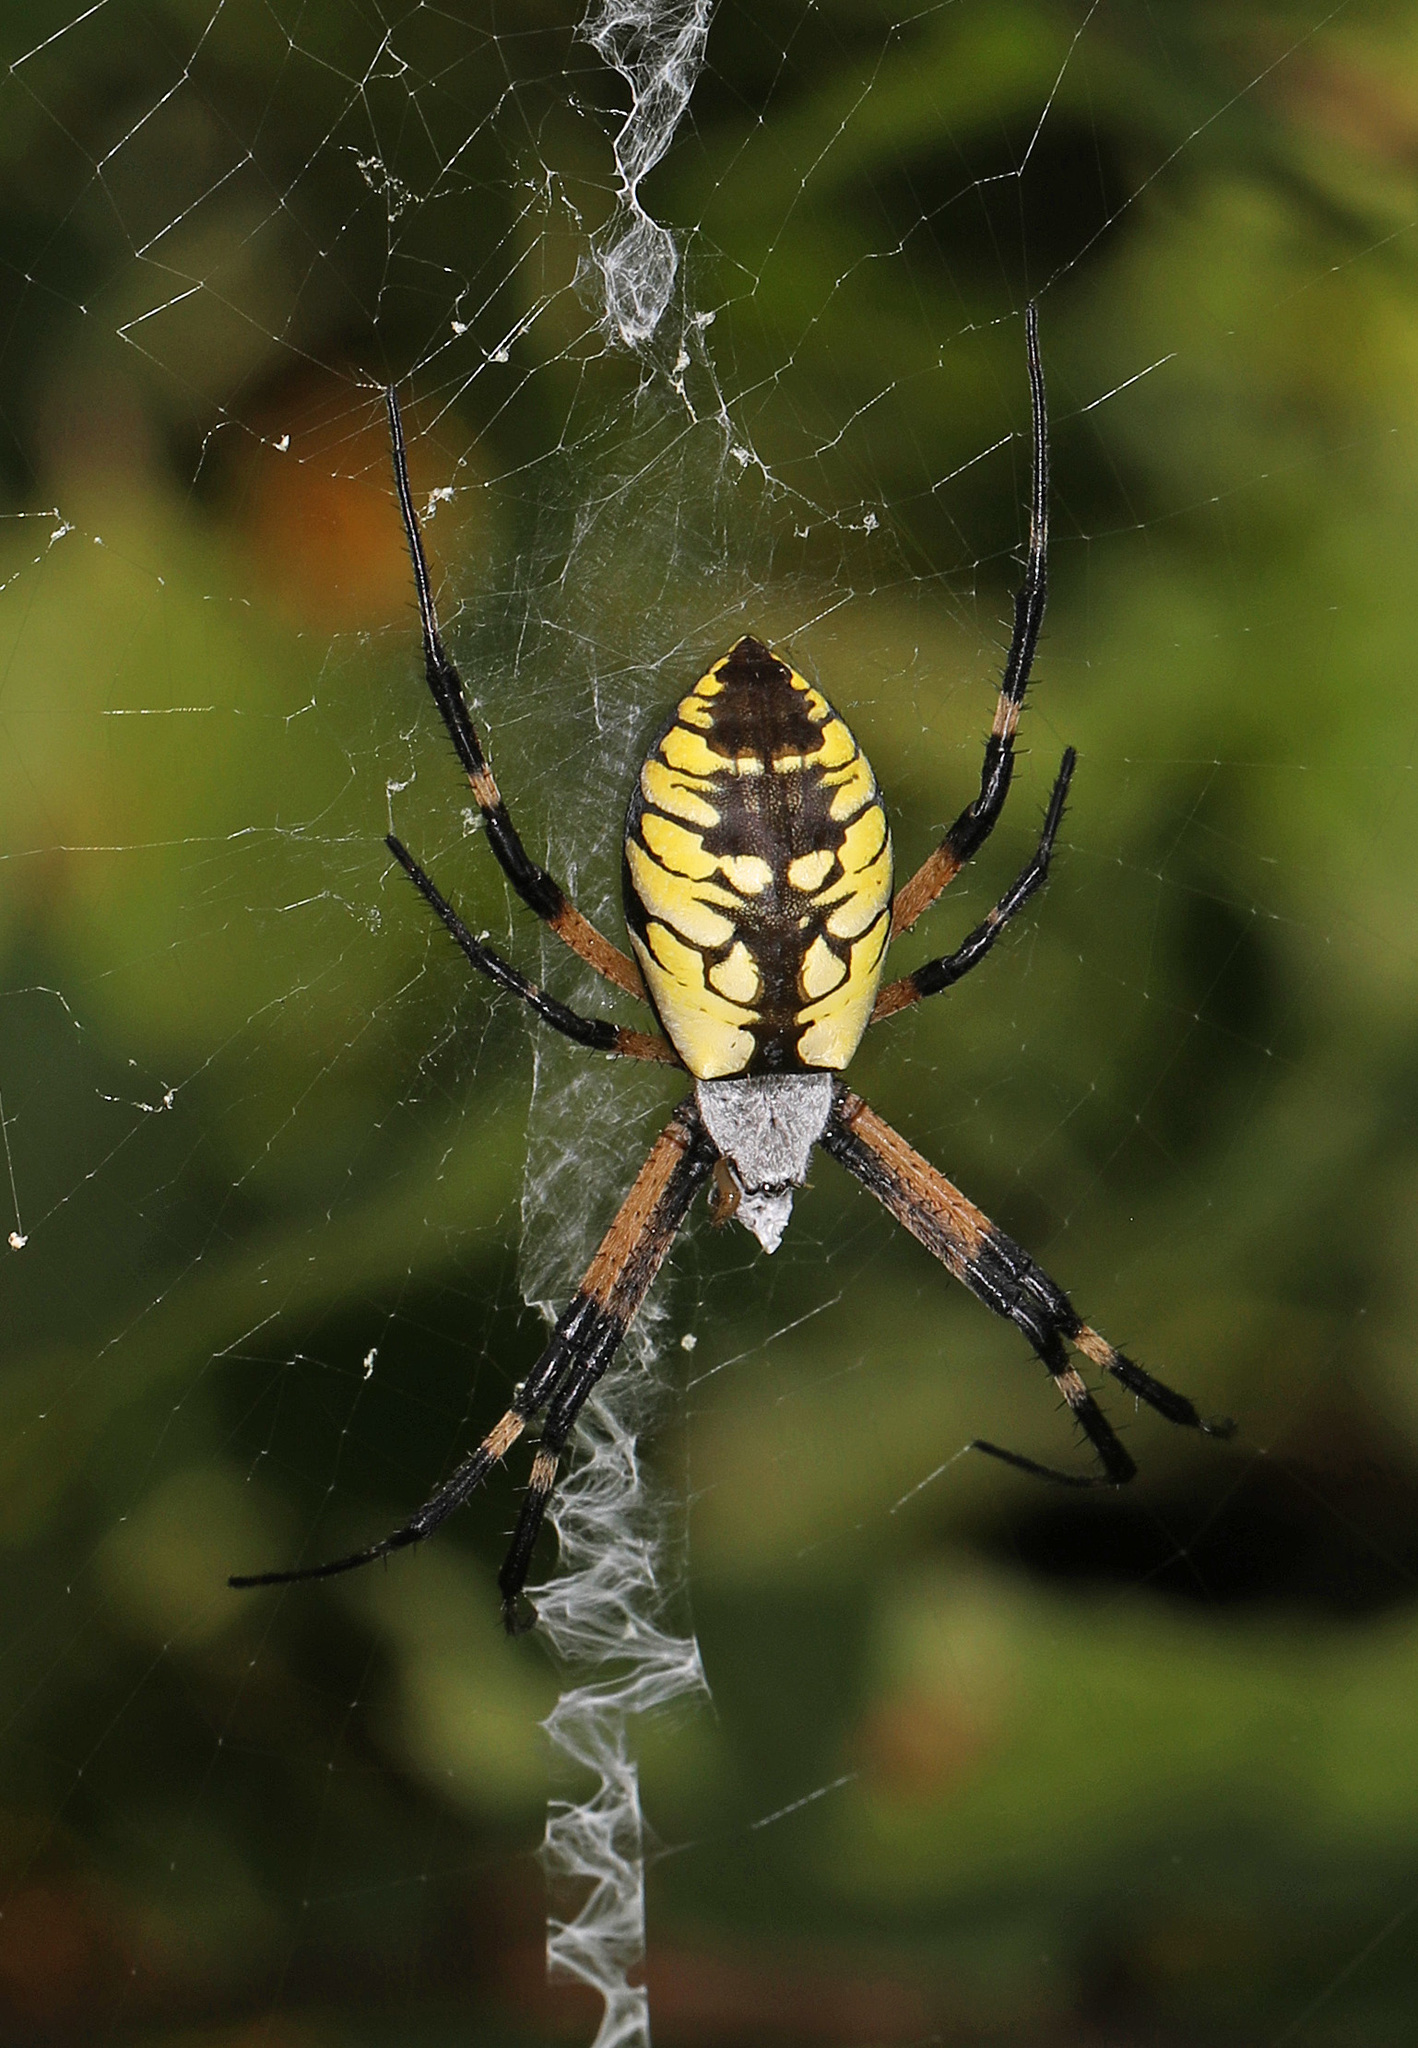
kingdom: Animalia
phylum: Arthropoda
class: Arachnida
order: Araneae
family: Araneidae
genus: Argiope
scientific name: Argiope aurantia
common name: Orb weavers
